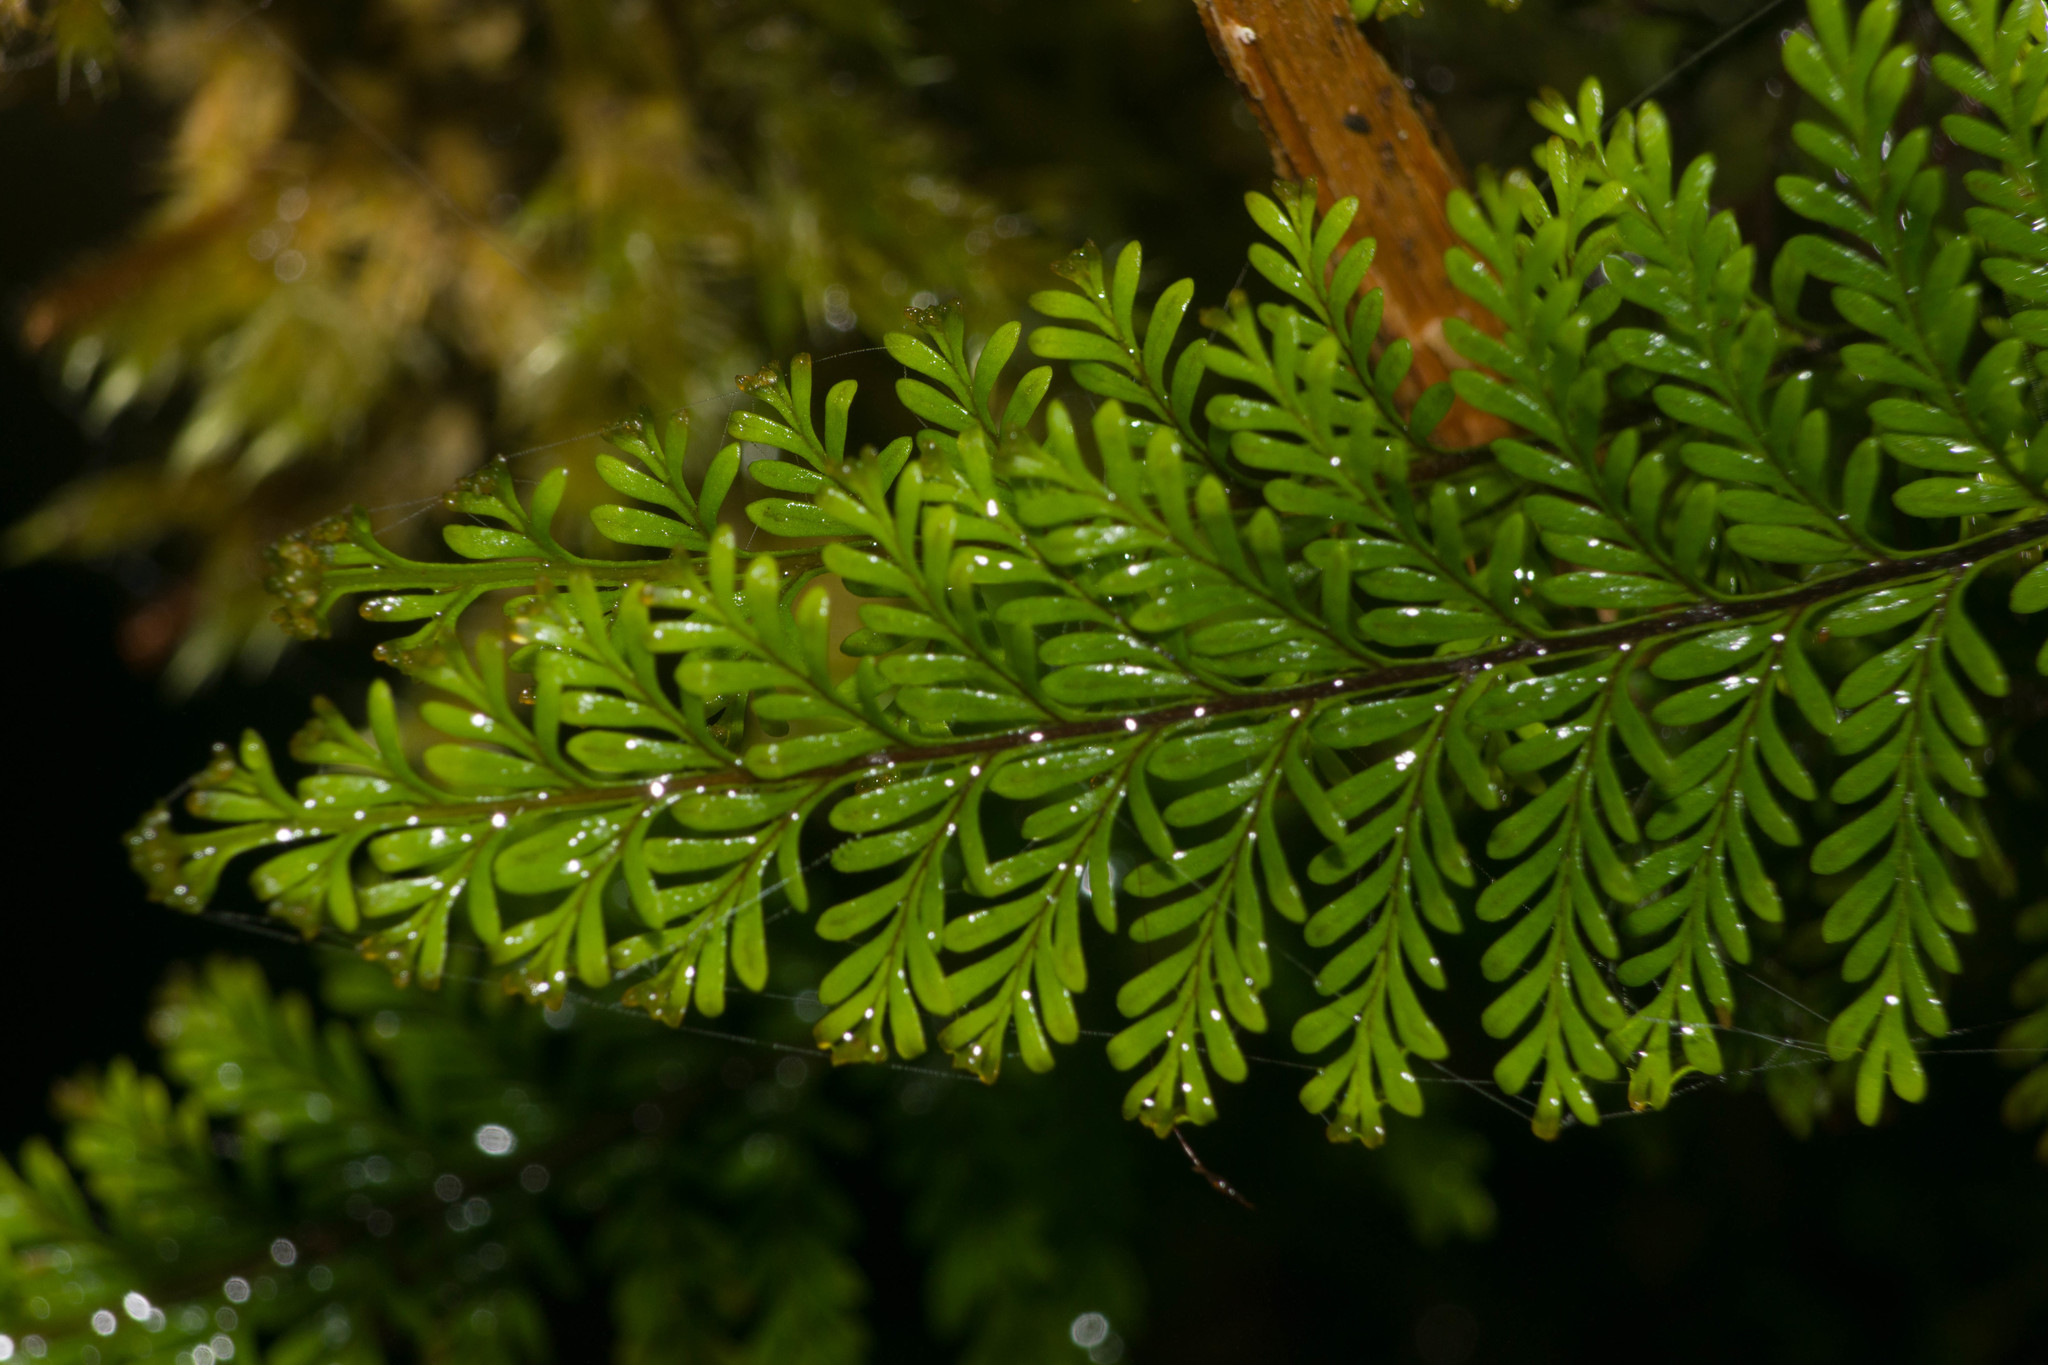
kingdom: Plantae
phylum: Tracheophyta
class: Polypodiopsida
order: Polypodiales
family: Polypodiaceae
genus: Adenophorus
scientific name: Adenophorus tamariscinus
